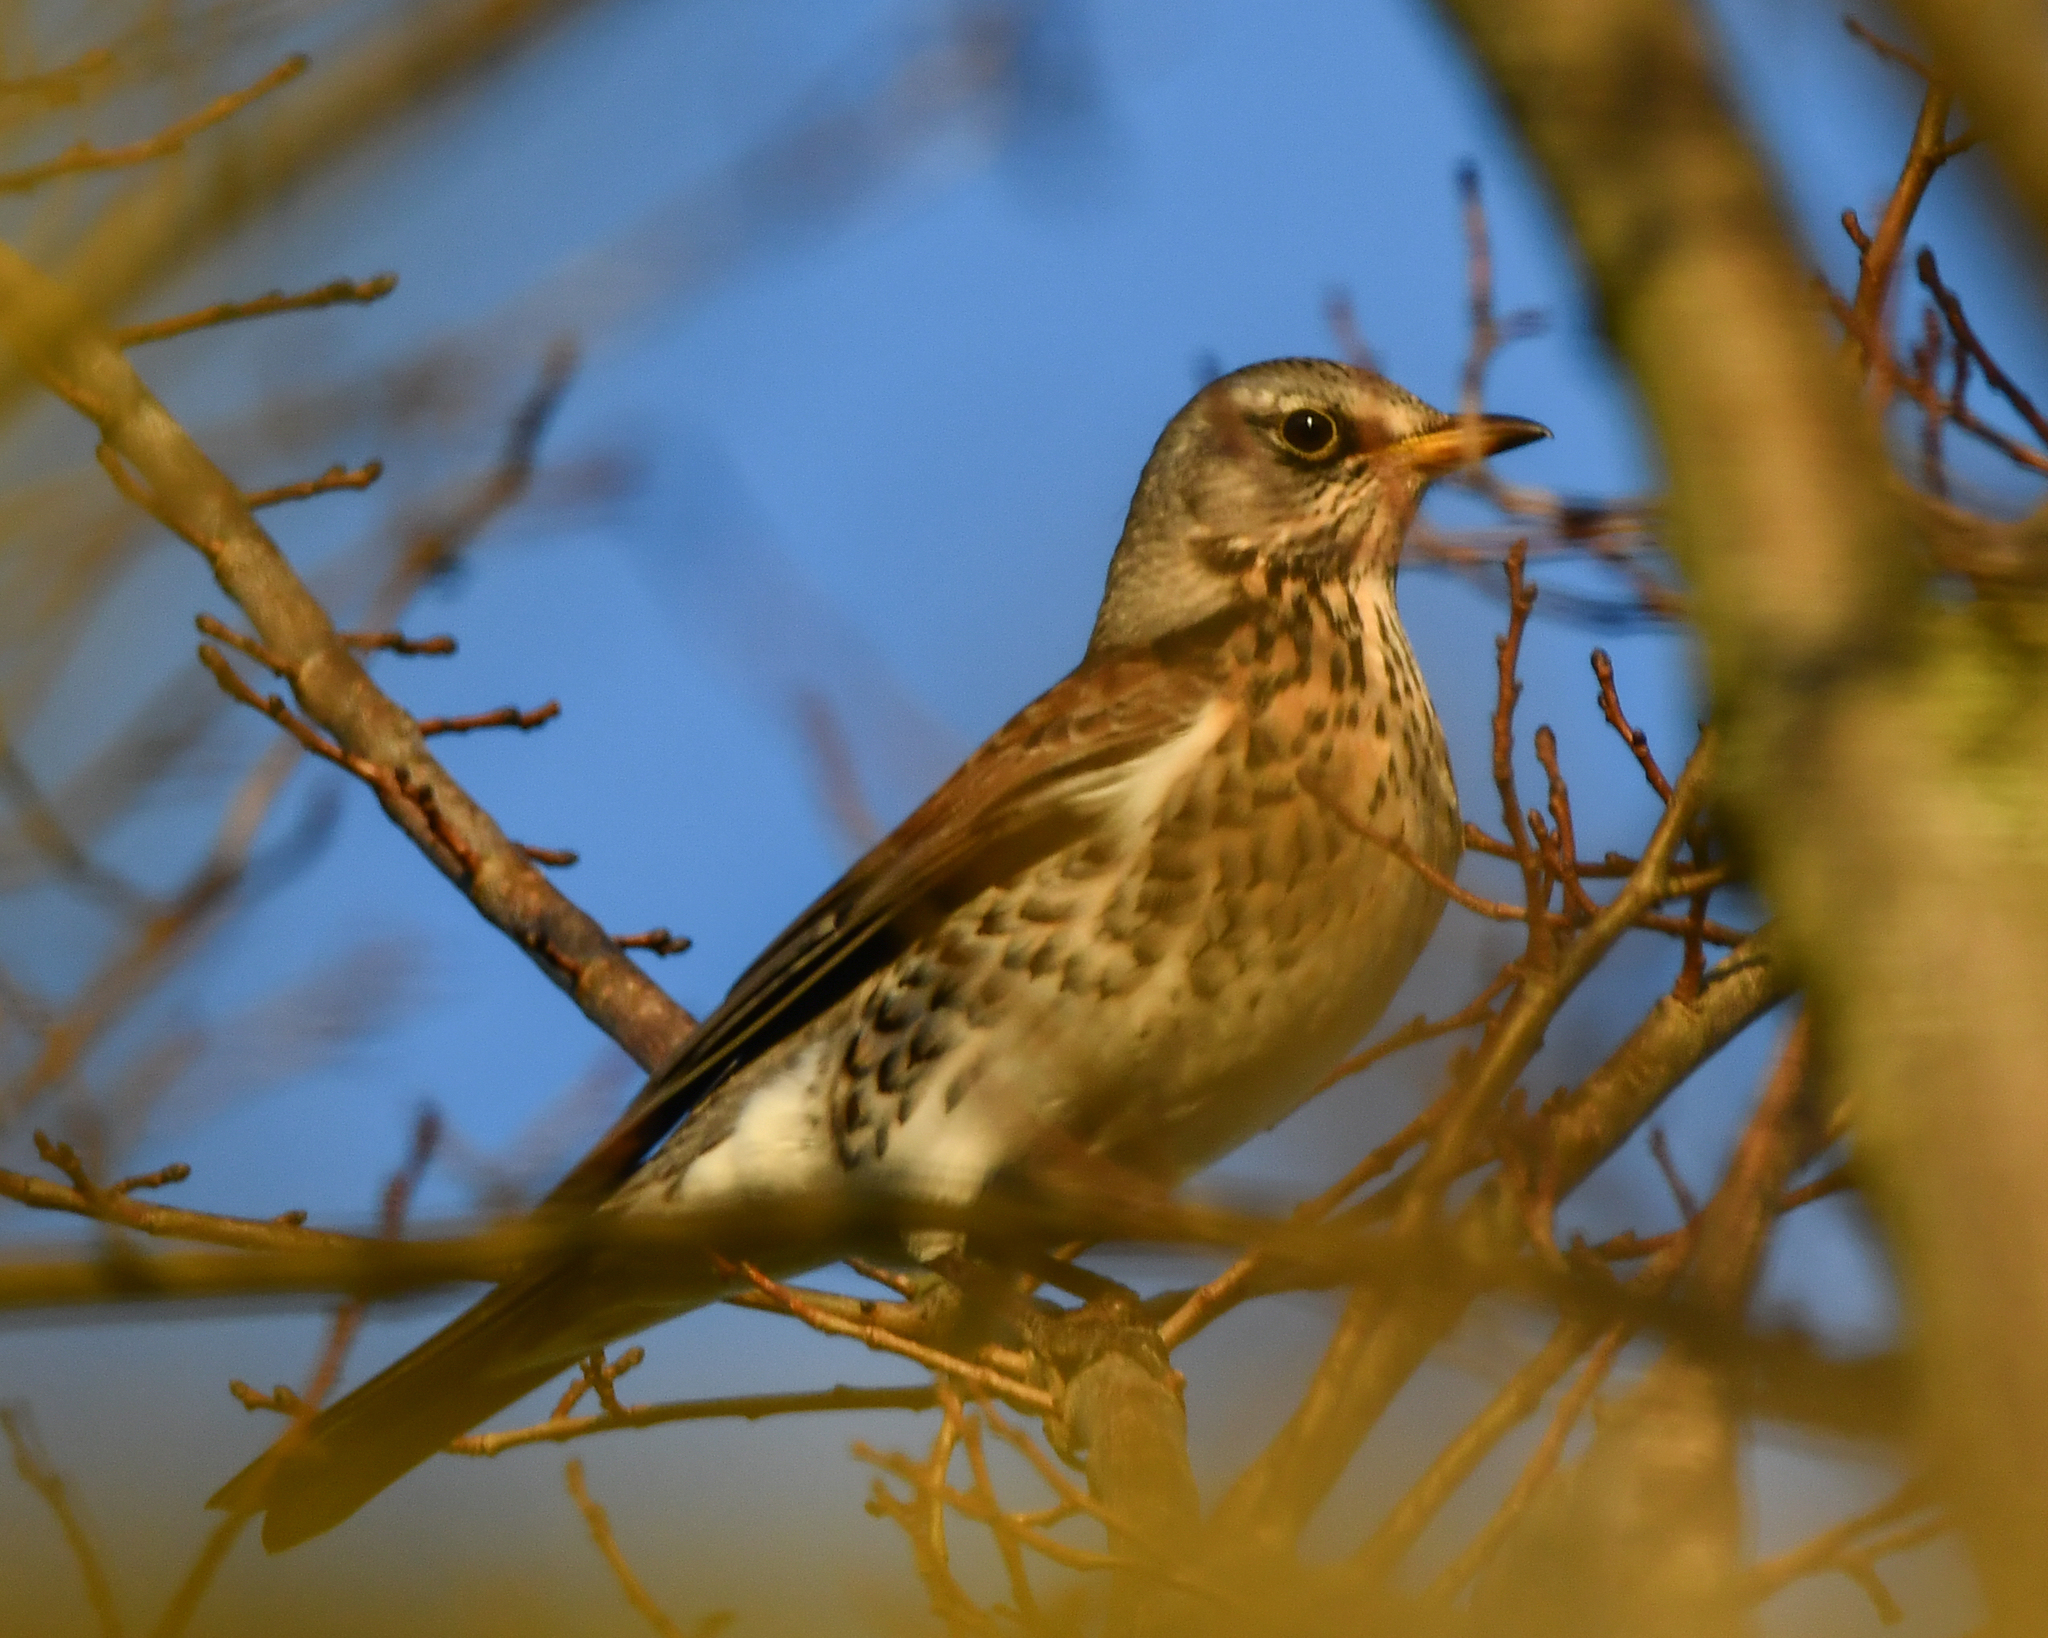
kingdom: Animalia
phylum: Chordata
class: Aves
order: Passeriformes
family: Turdidae
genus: Turdus
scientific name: Turdus pilaris
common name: Fieldfare
